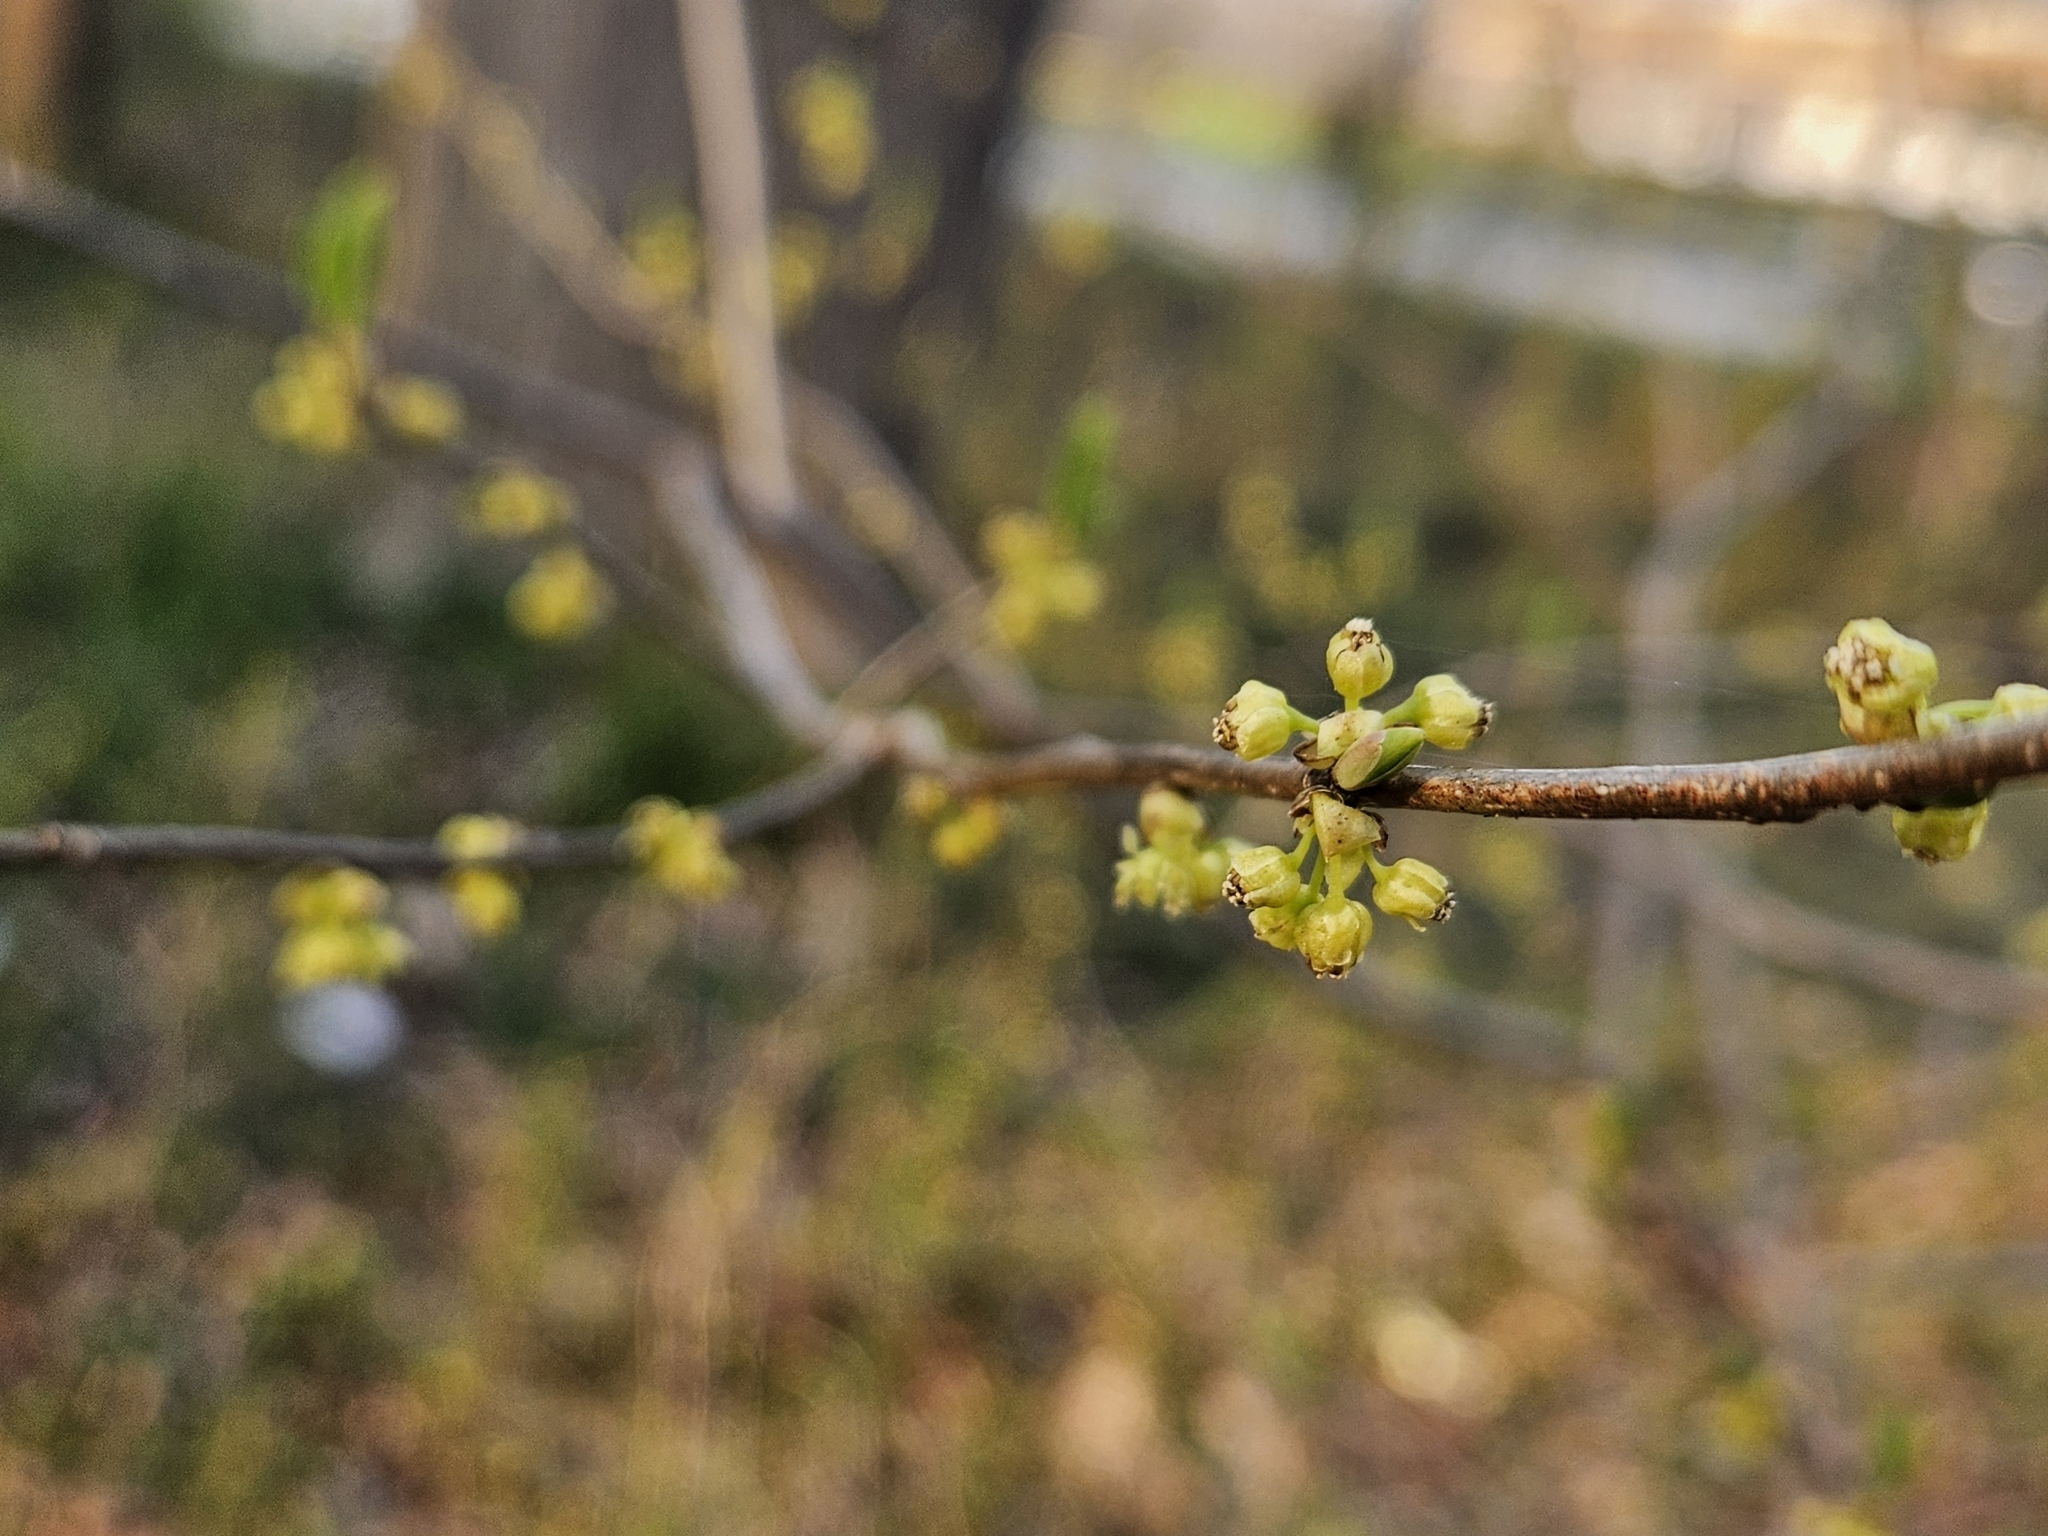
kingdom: Plantae
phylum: Tracheophyta
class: Magnoliopsida
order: Laurales
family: Lauraceae
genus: Lindera
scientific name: Lindera benzoin
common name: Spicebush
